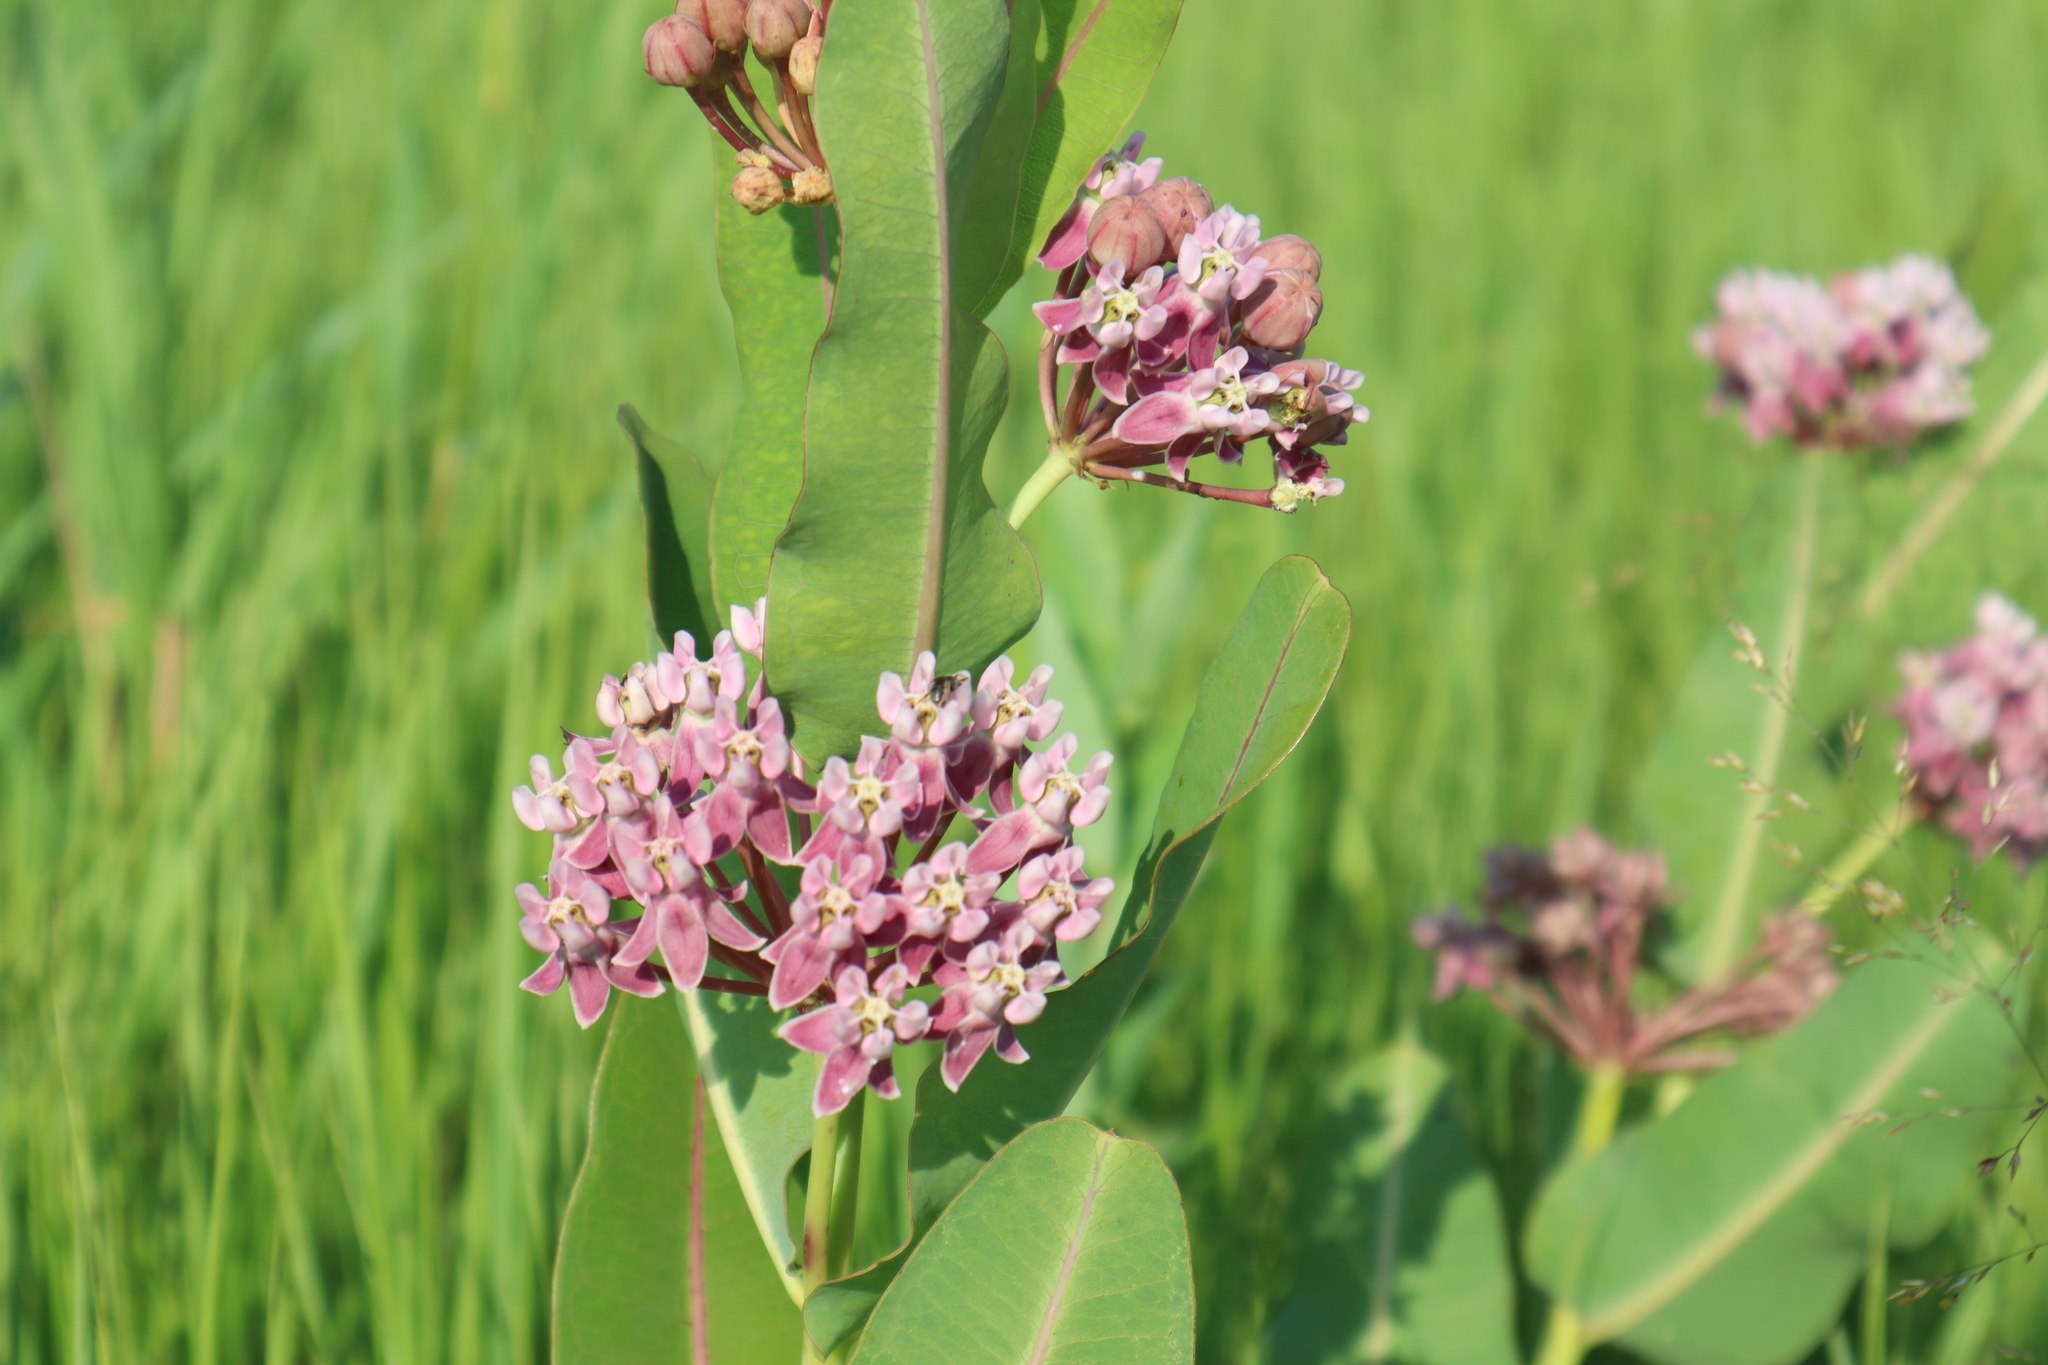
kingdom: Plantae
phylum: Tracheophyta
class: Magnoliopsida
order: Gentianales
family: Apocynaceae
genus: Asclepias
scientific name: Asclepias sullivantii
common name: Prairie milkweed
